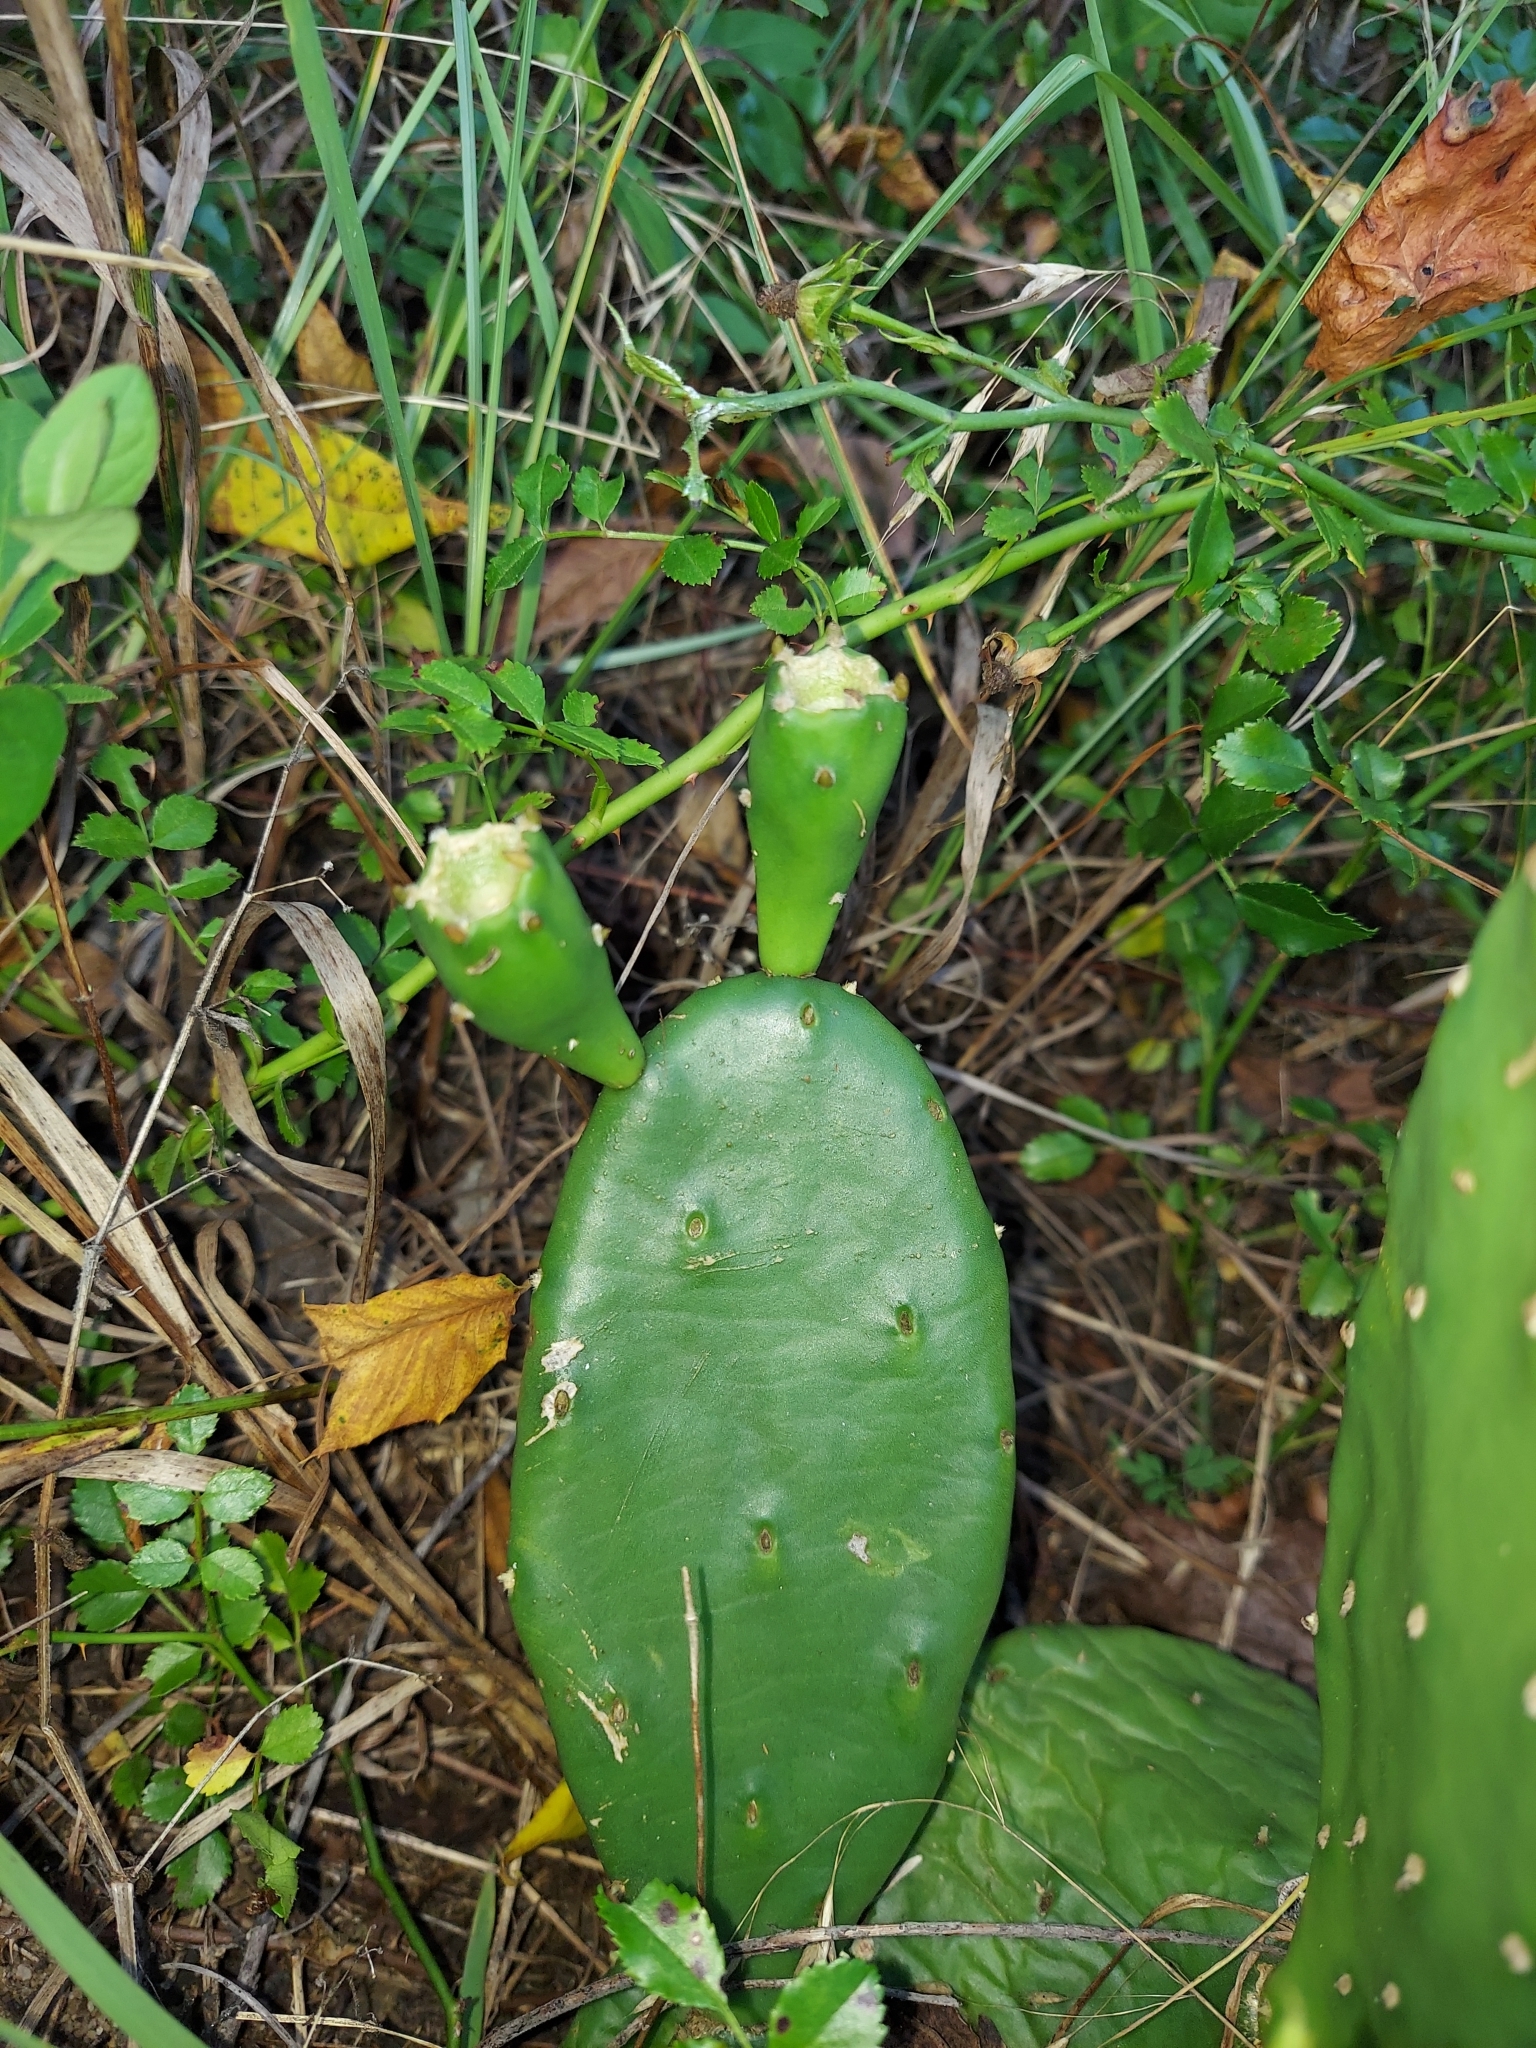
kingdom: Plantae
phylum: Tracheophyta
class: Magnoliopsida
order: Caryophyllales
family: Cactaceae
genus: Opuntia
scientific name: Opuntia humifusa
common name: Eastern prickly-pear
